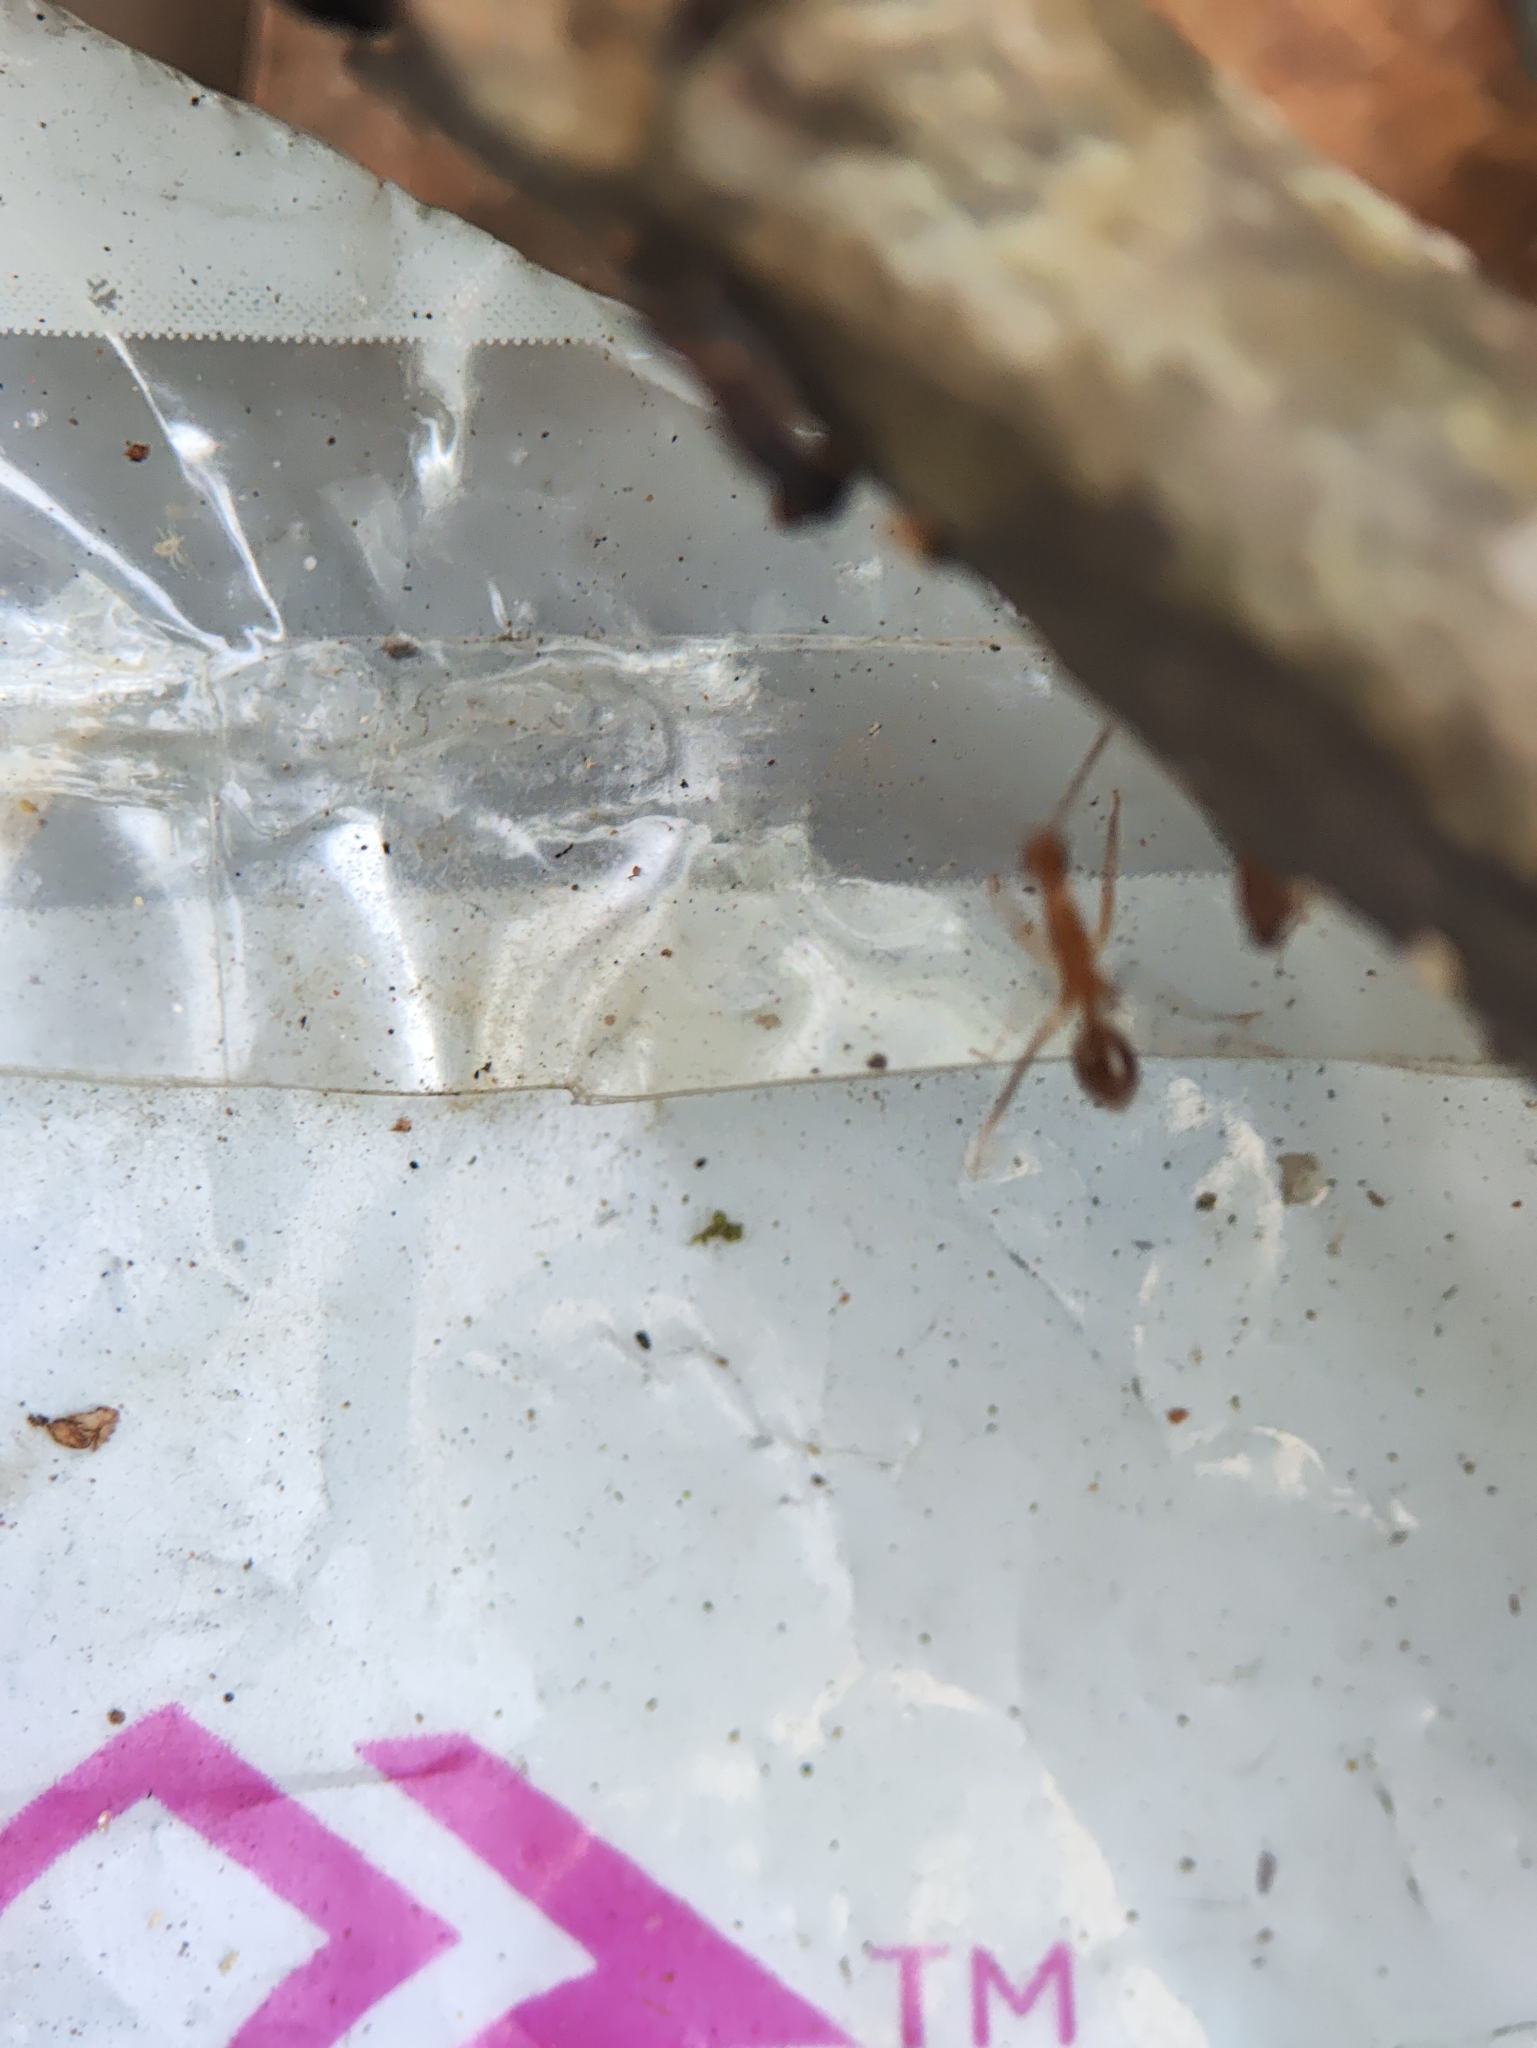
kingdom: Animalia
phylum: Arthropoda
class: Insecta
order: Hymenoptera
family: Formicidae
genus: Anoplolepis
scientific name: Anoplolepis gracilipes
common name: Ant
